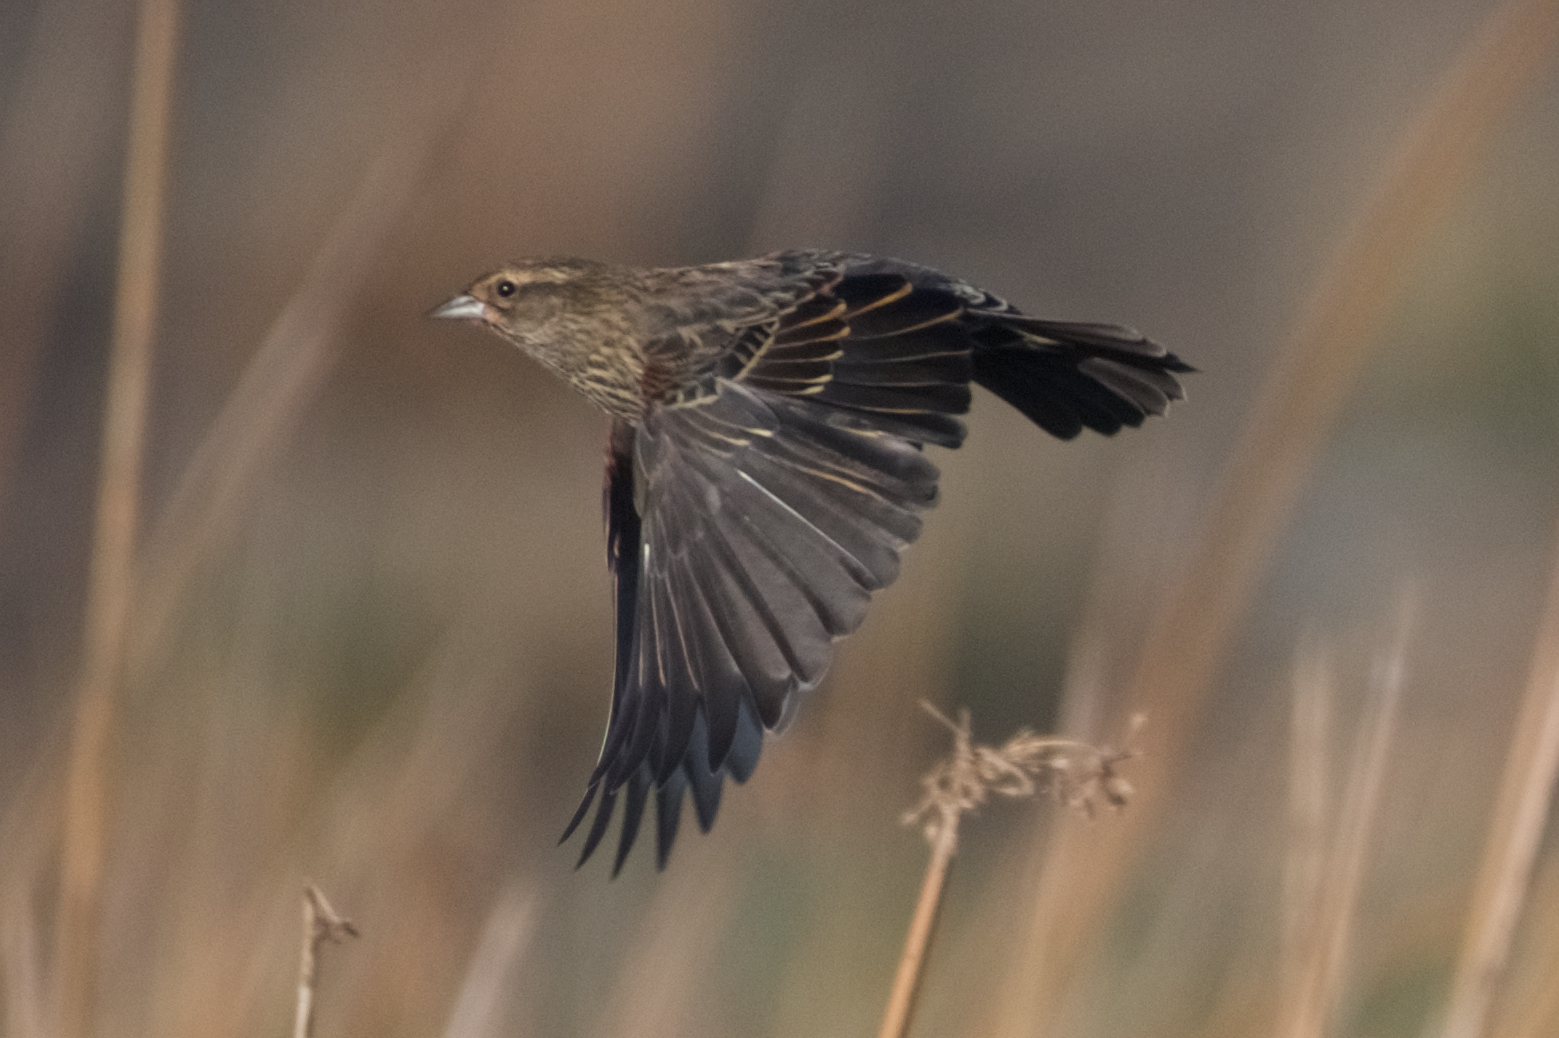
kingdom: Animalia
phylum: Chordata
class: Aves
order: Passeriformes
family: Icteridae
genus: Agelaius
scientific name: Agelaius phoeniceus
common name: Red-winged blackbird
